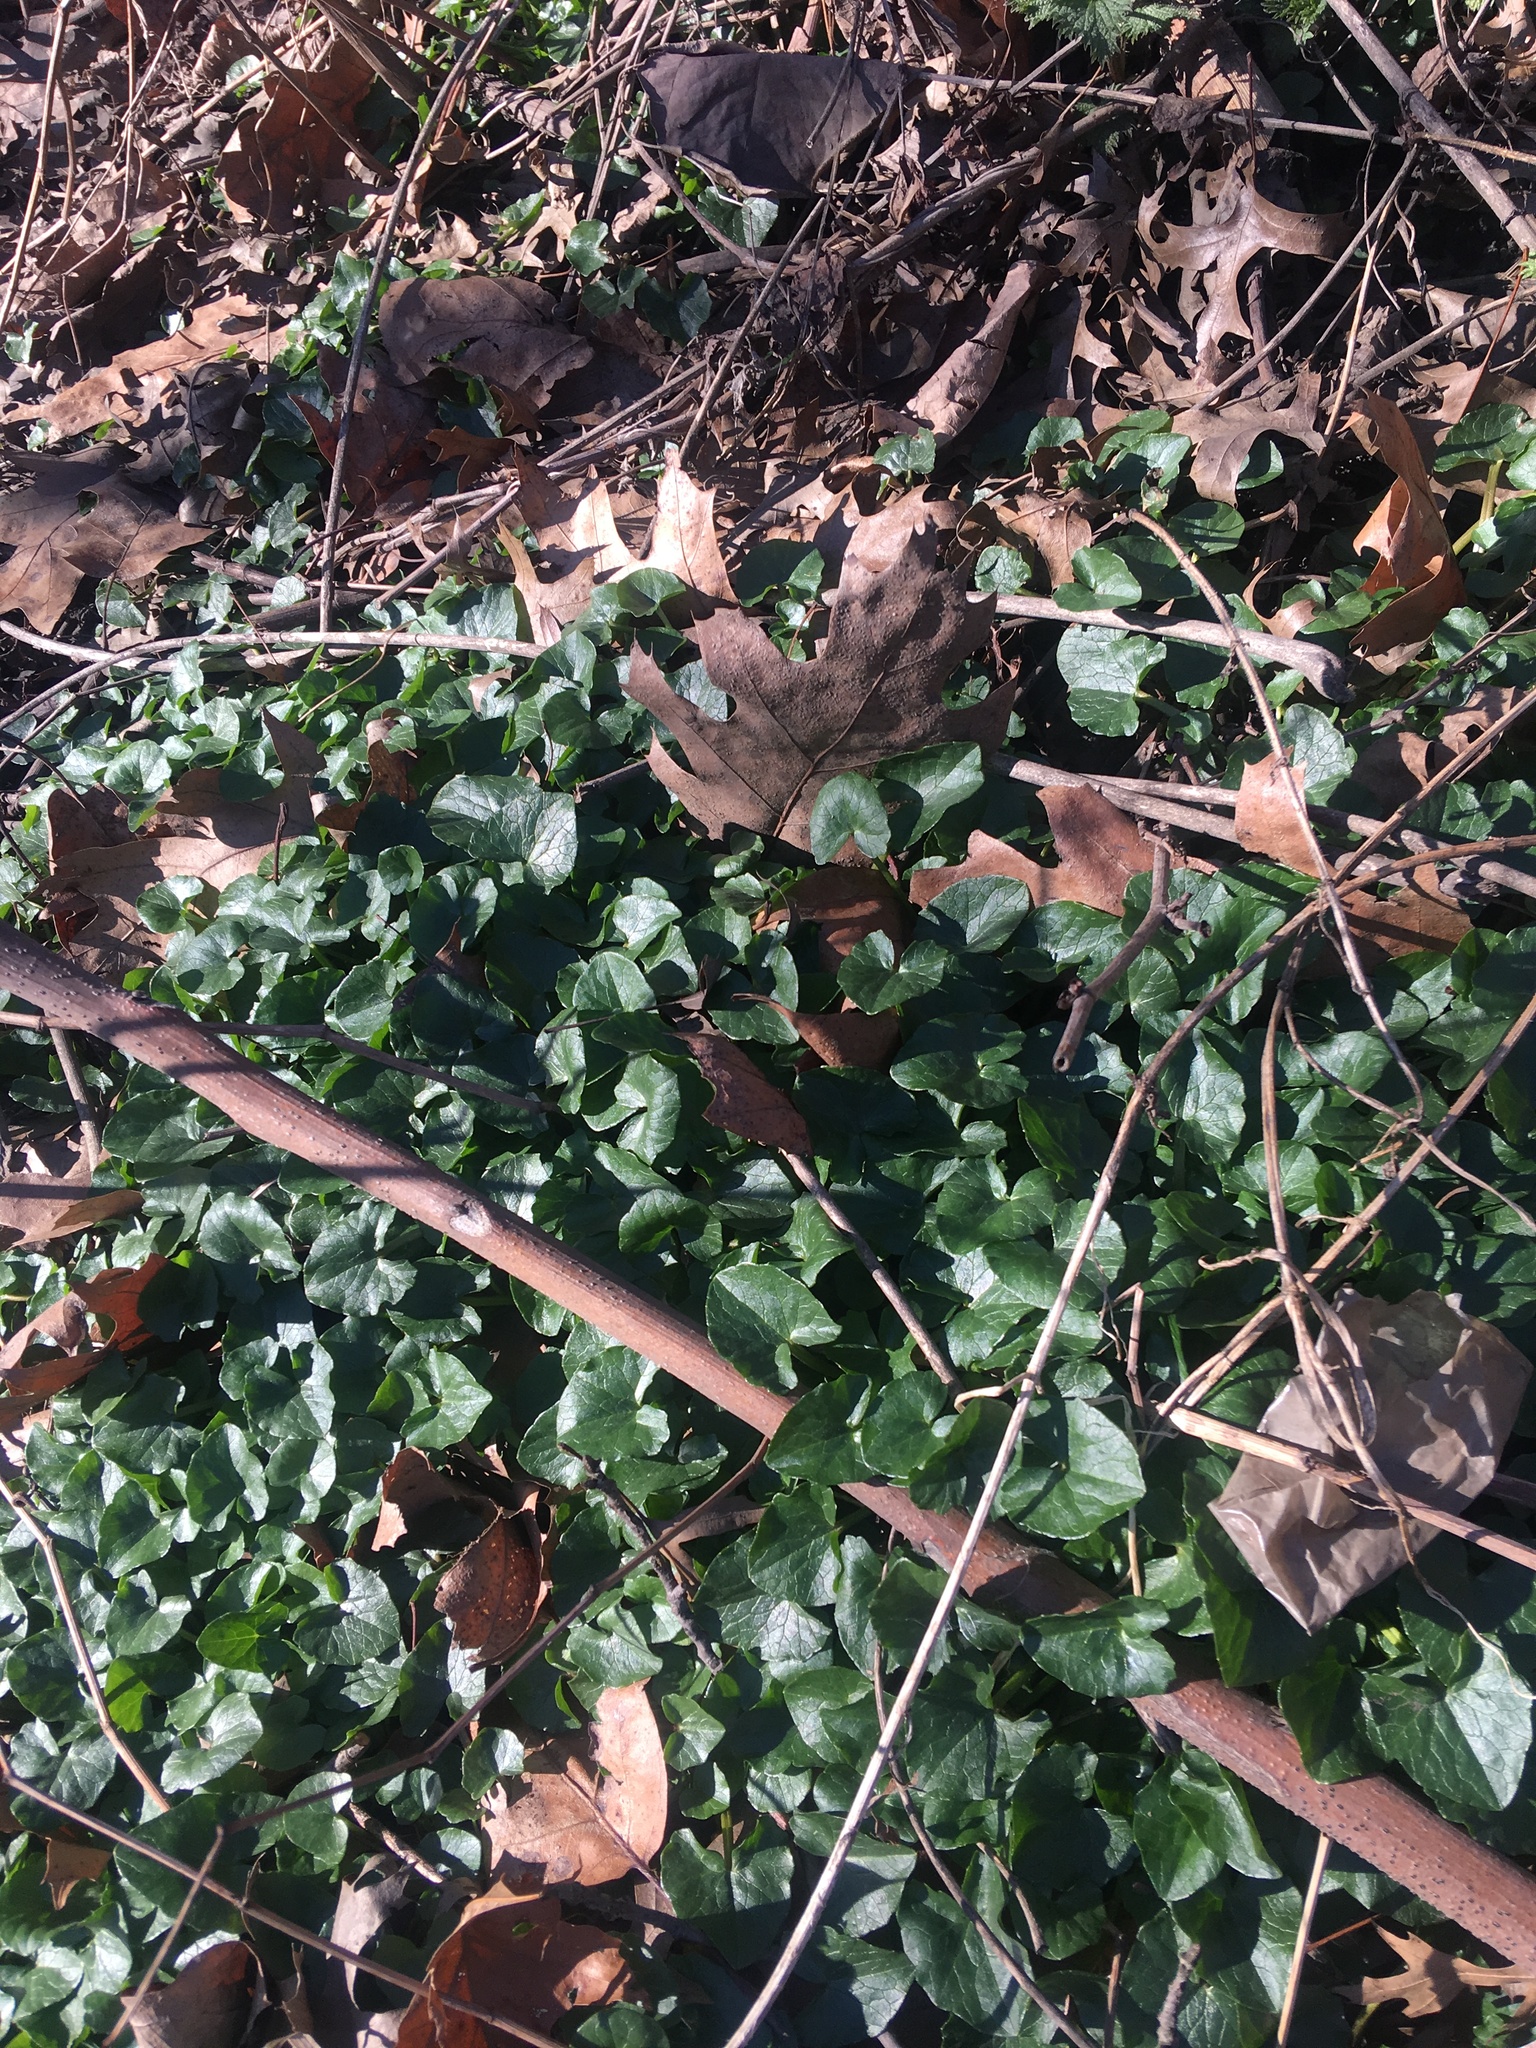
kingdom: Plantae
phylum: Tracheophyta
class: Magnoliopsida
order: Ranunculales
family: Ranunculaceae
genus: Ficaria
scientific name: Ficaria verna
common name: Lesser celandine
